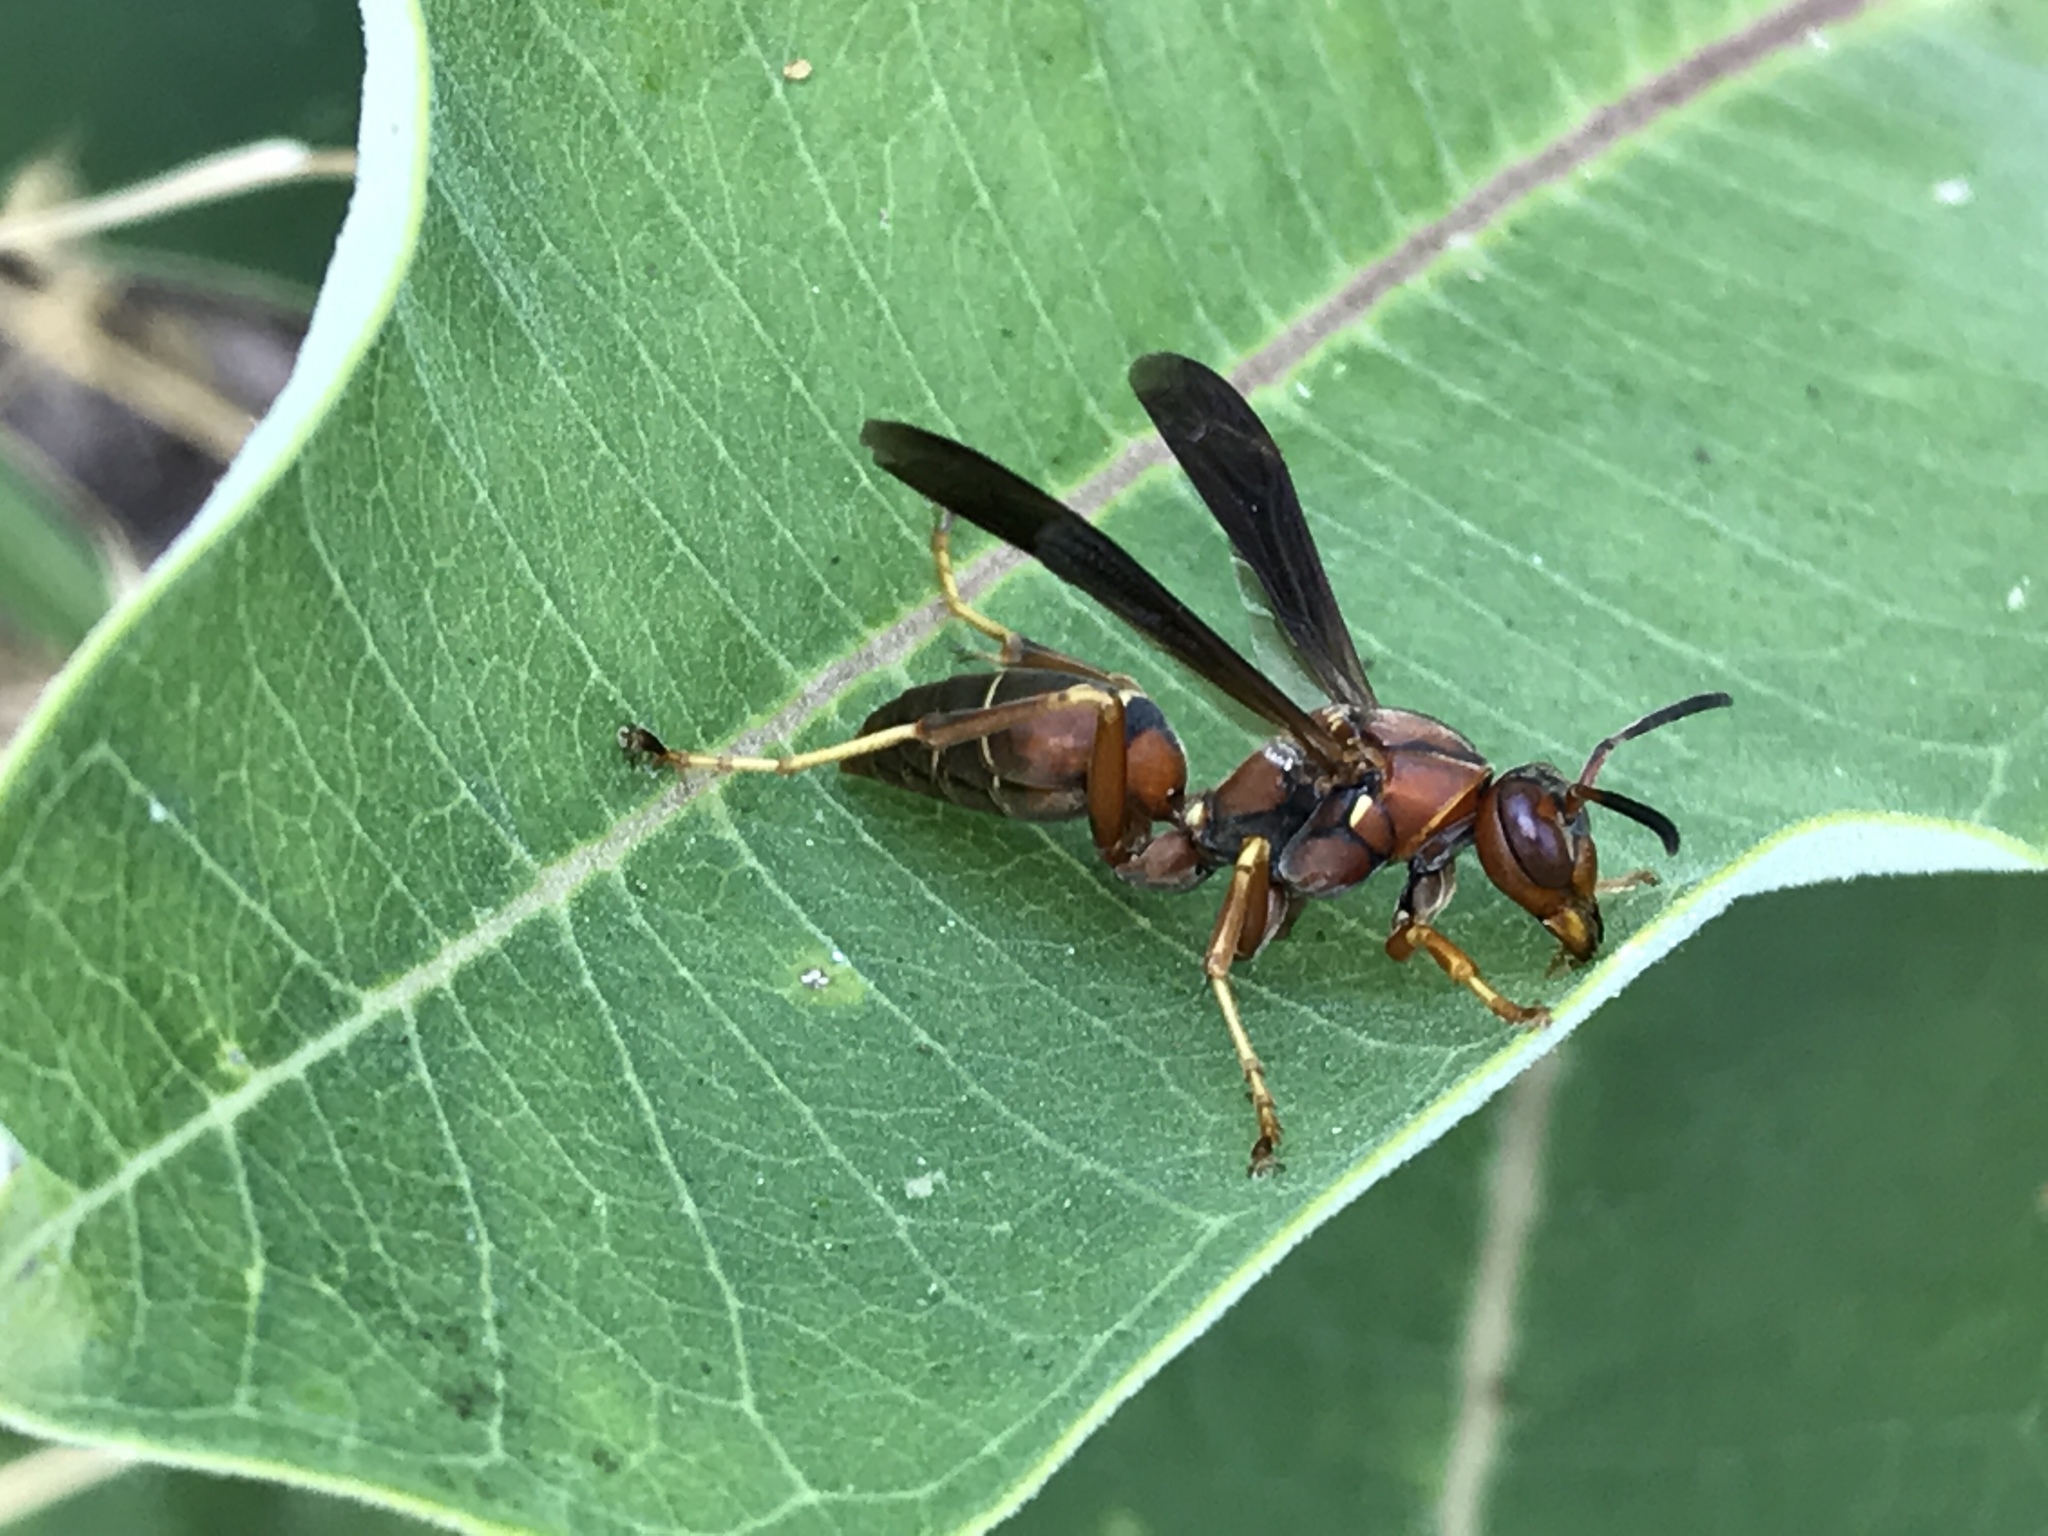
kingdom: Animalia
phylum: Arthropoda
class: Insecta
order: Hymenoptera
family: Eumenidae
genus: Polistes
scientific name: Polistes fuscatus
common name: Dark paper wasp
